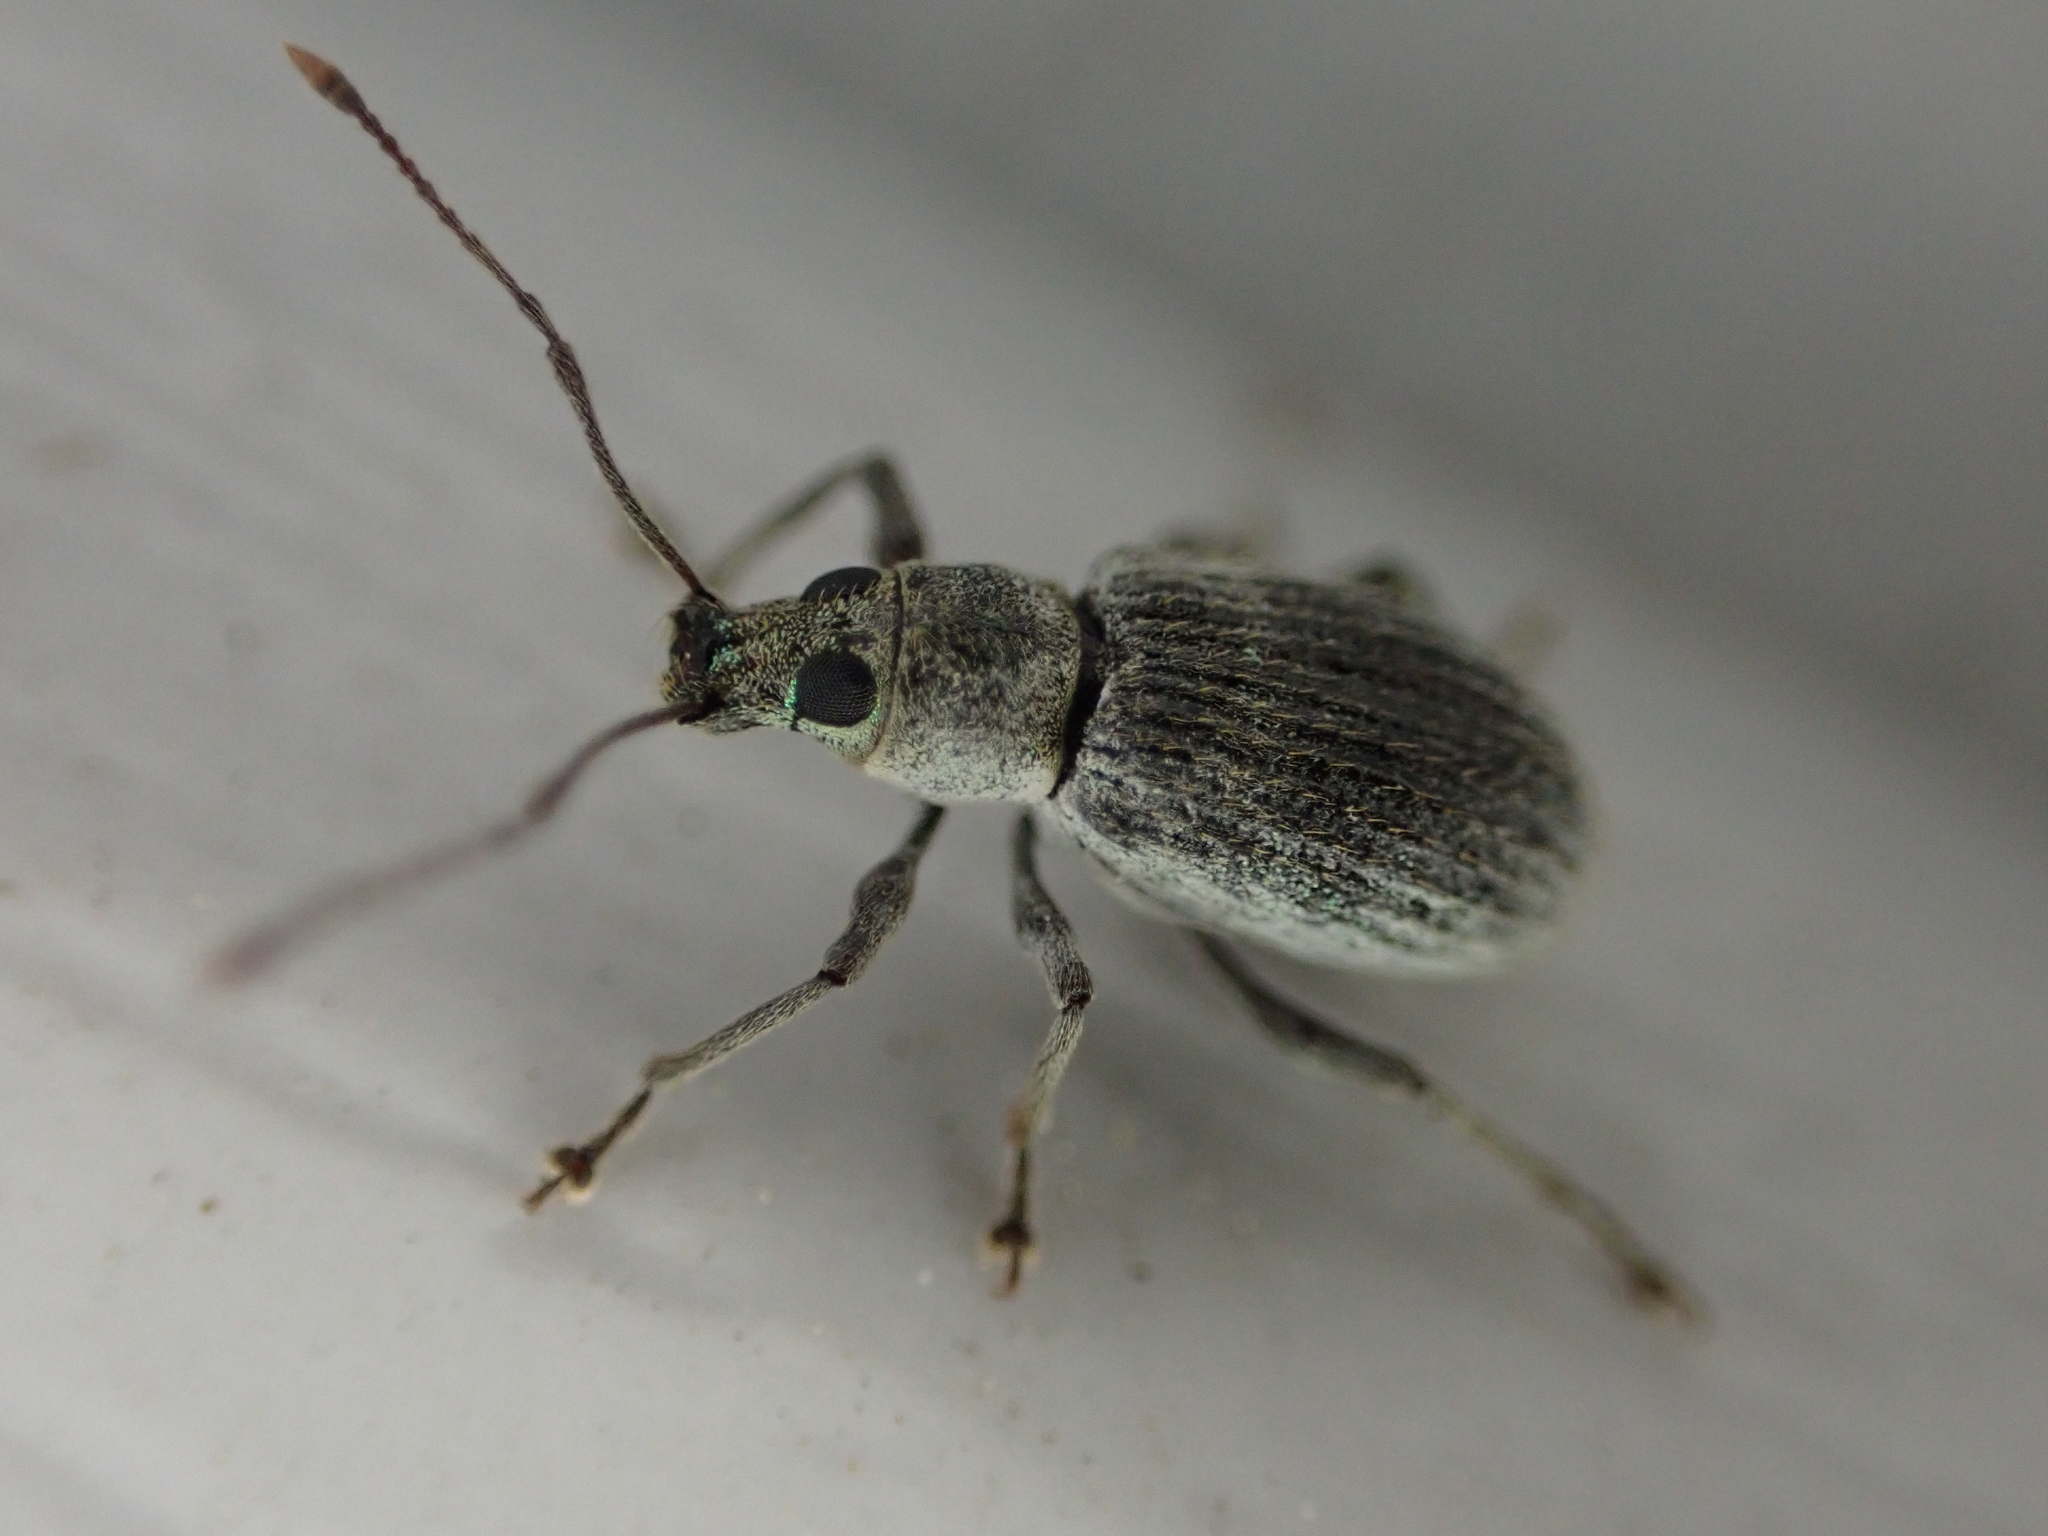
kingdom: Animalia
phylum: Arthropoda
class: Insecta
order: Coleoptera
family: Curculionidae
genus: Cyrtepistomus
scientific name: Cyrtepistomus castaneus
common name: Weevil
